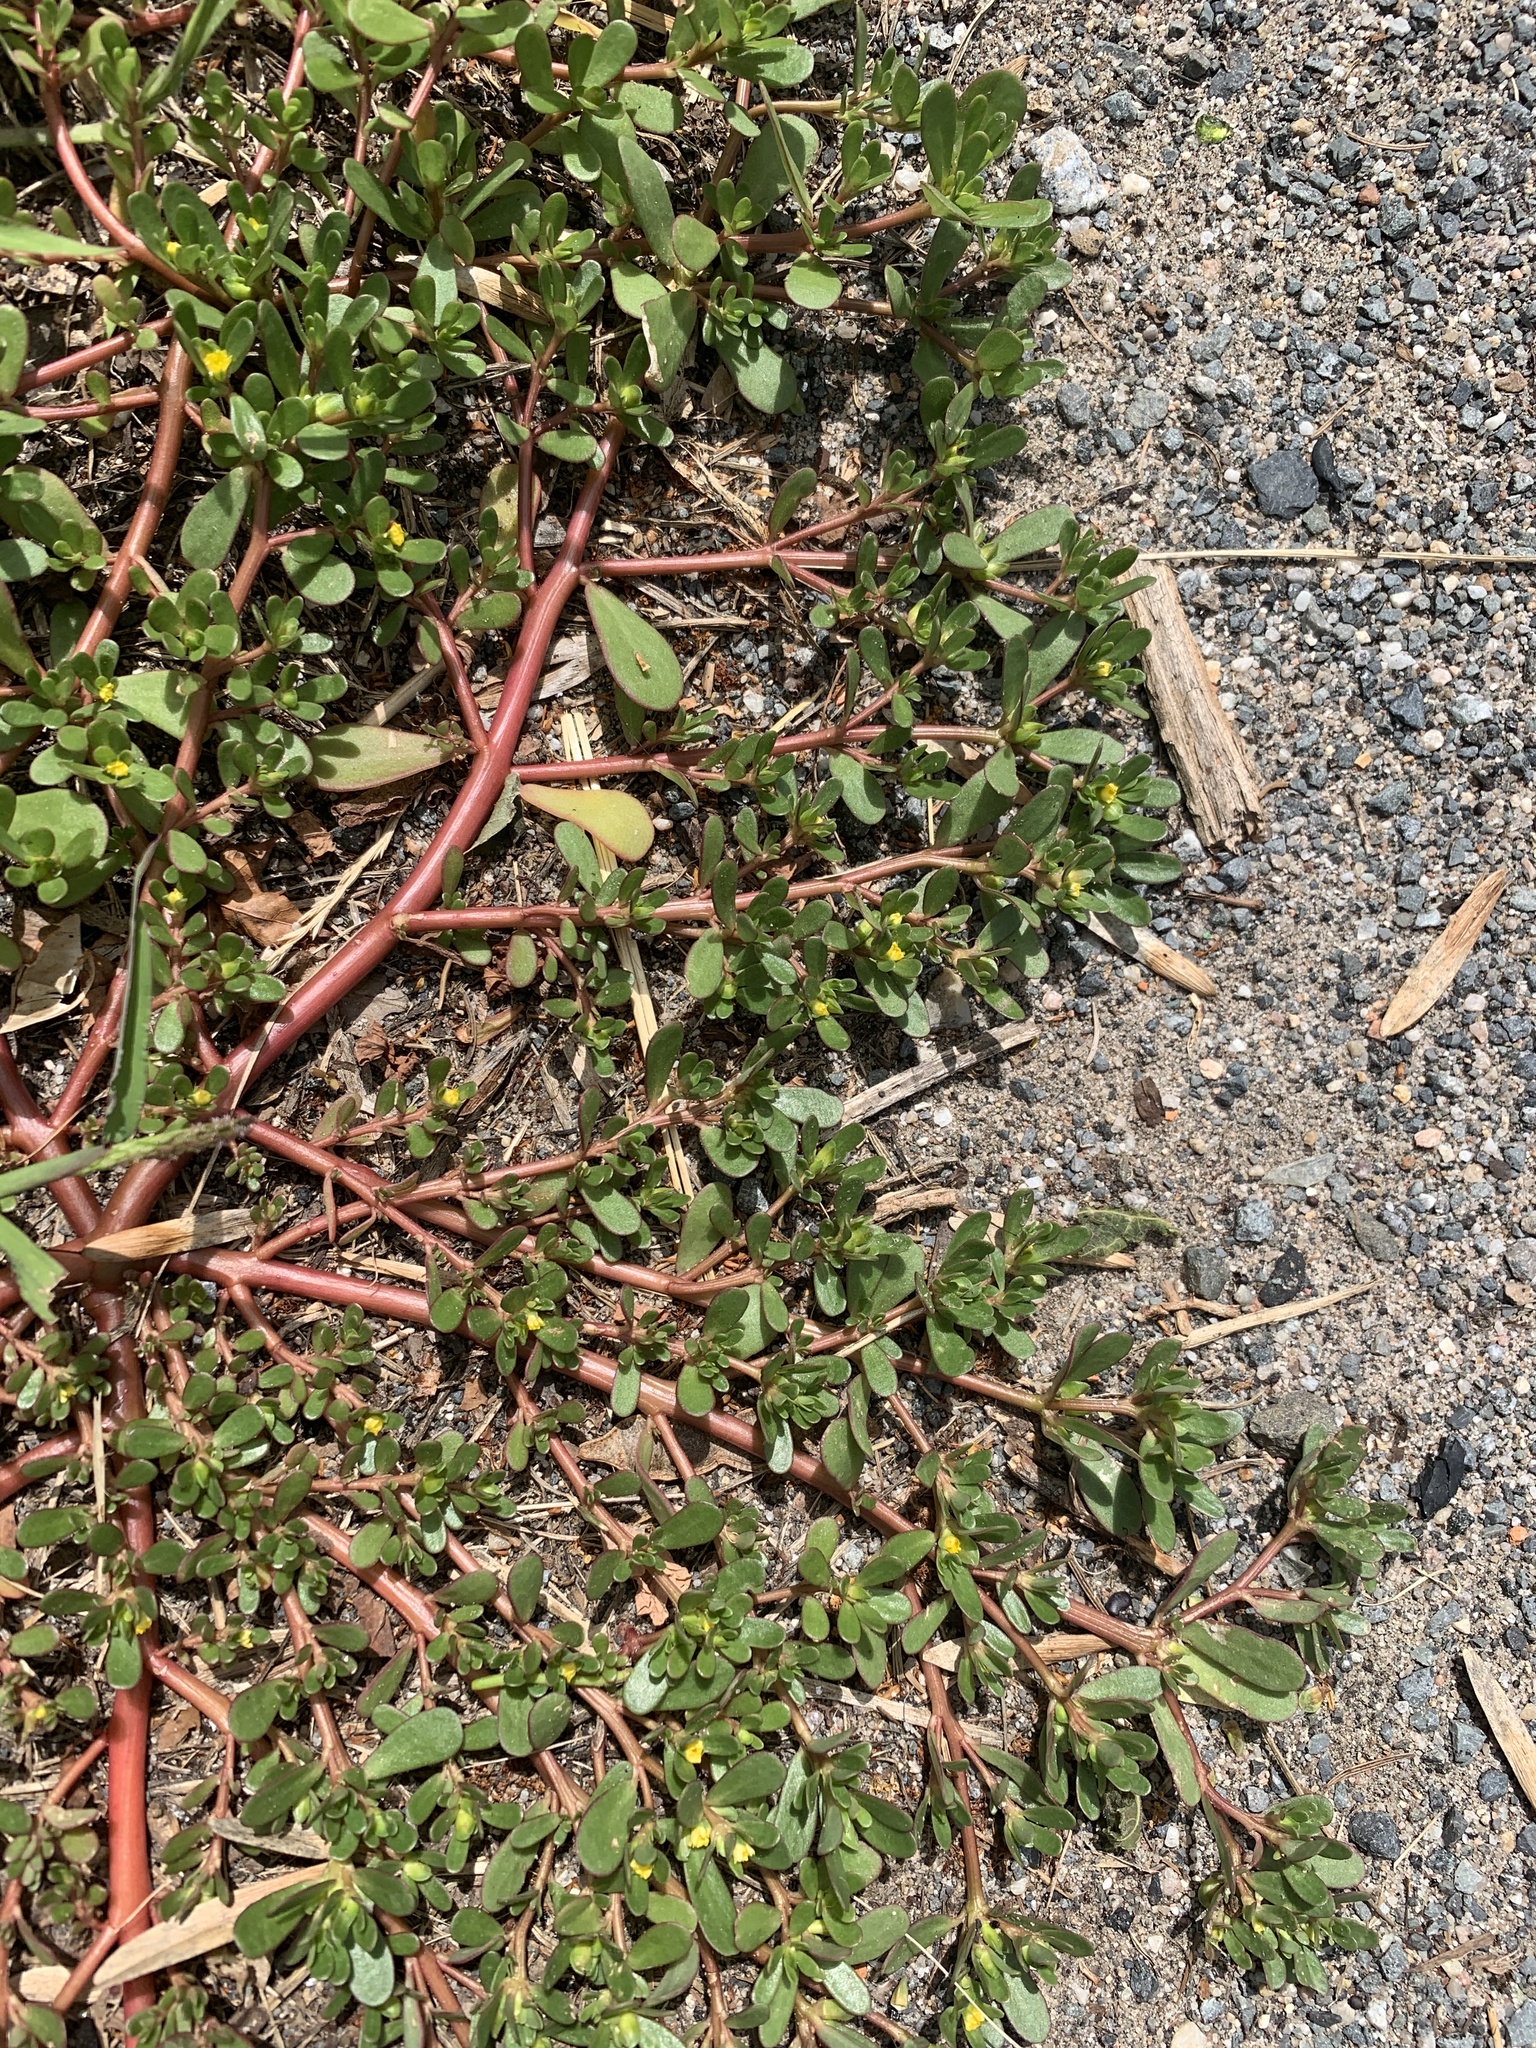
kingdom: Plantae
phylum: Tracheophyta
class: Magnoliopsida
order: Caryophyllales
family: Portulacaceae
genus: Portulaca
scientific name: Portulaca oleracea
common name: Common purslane
